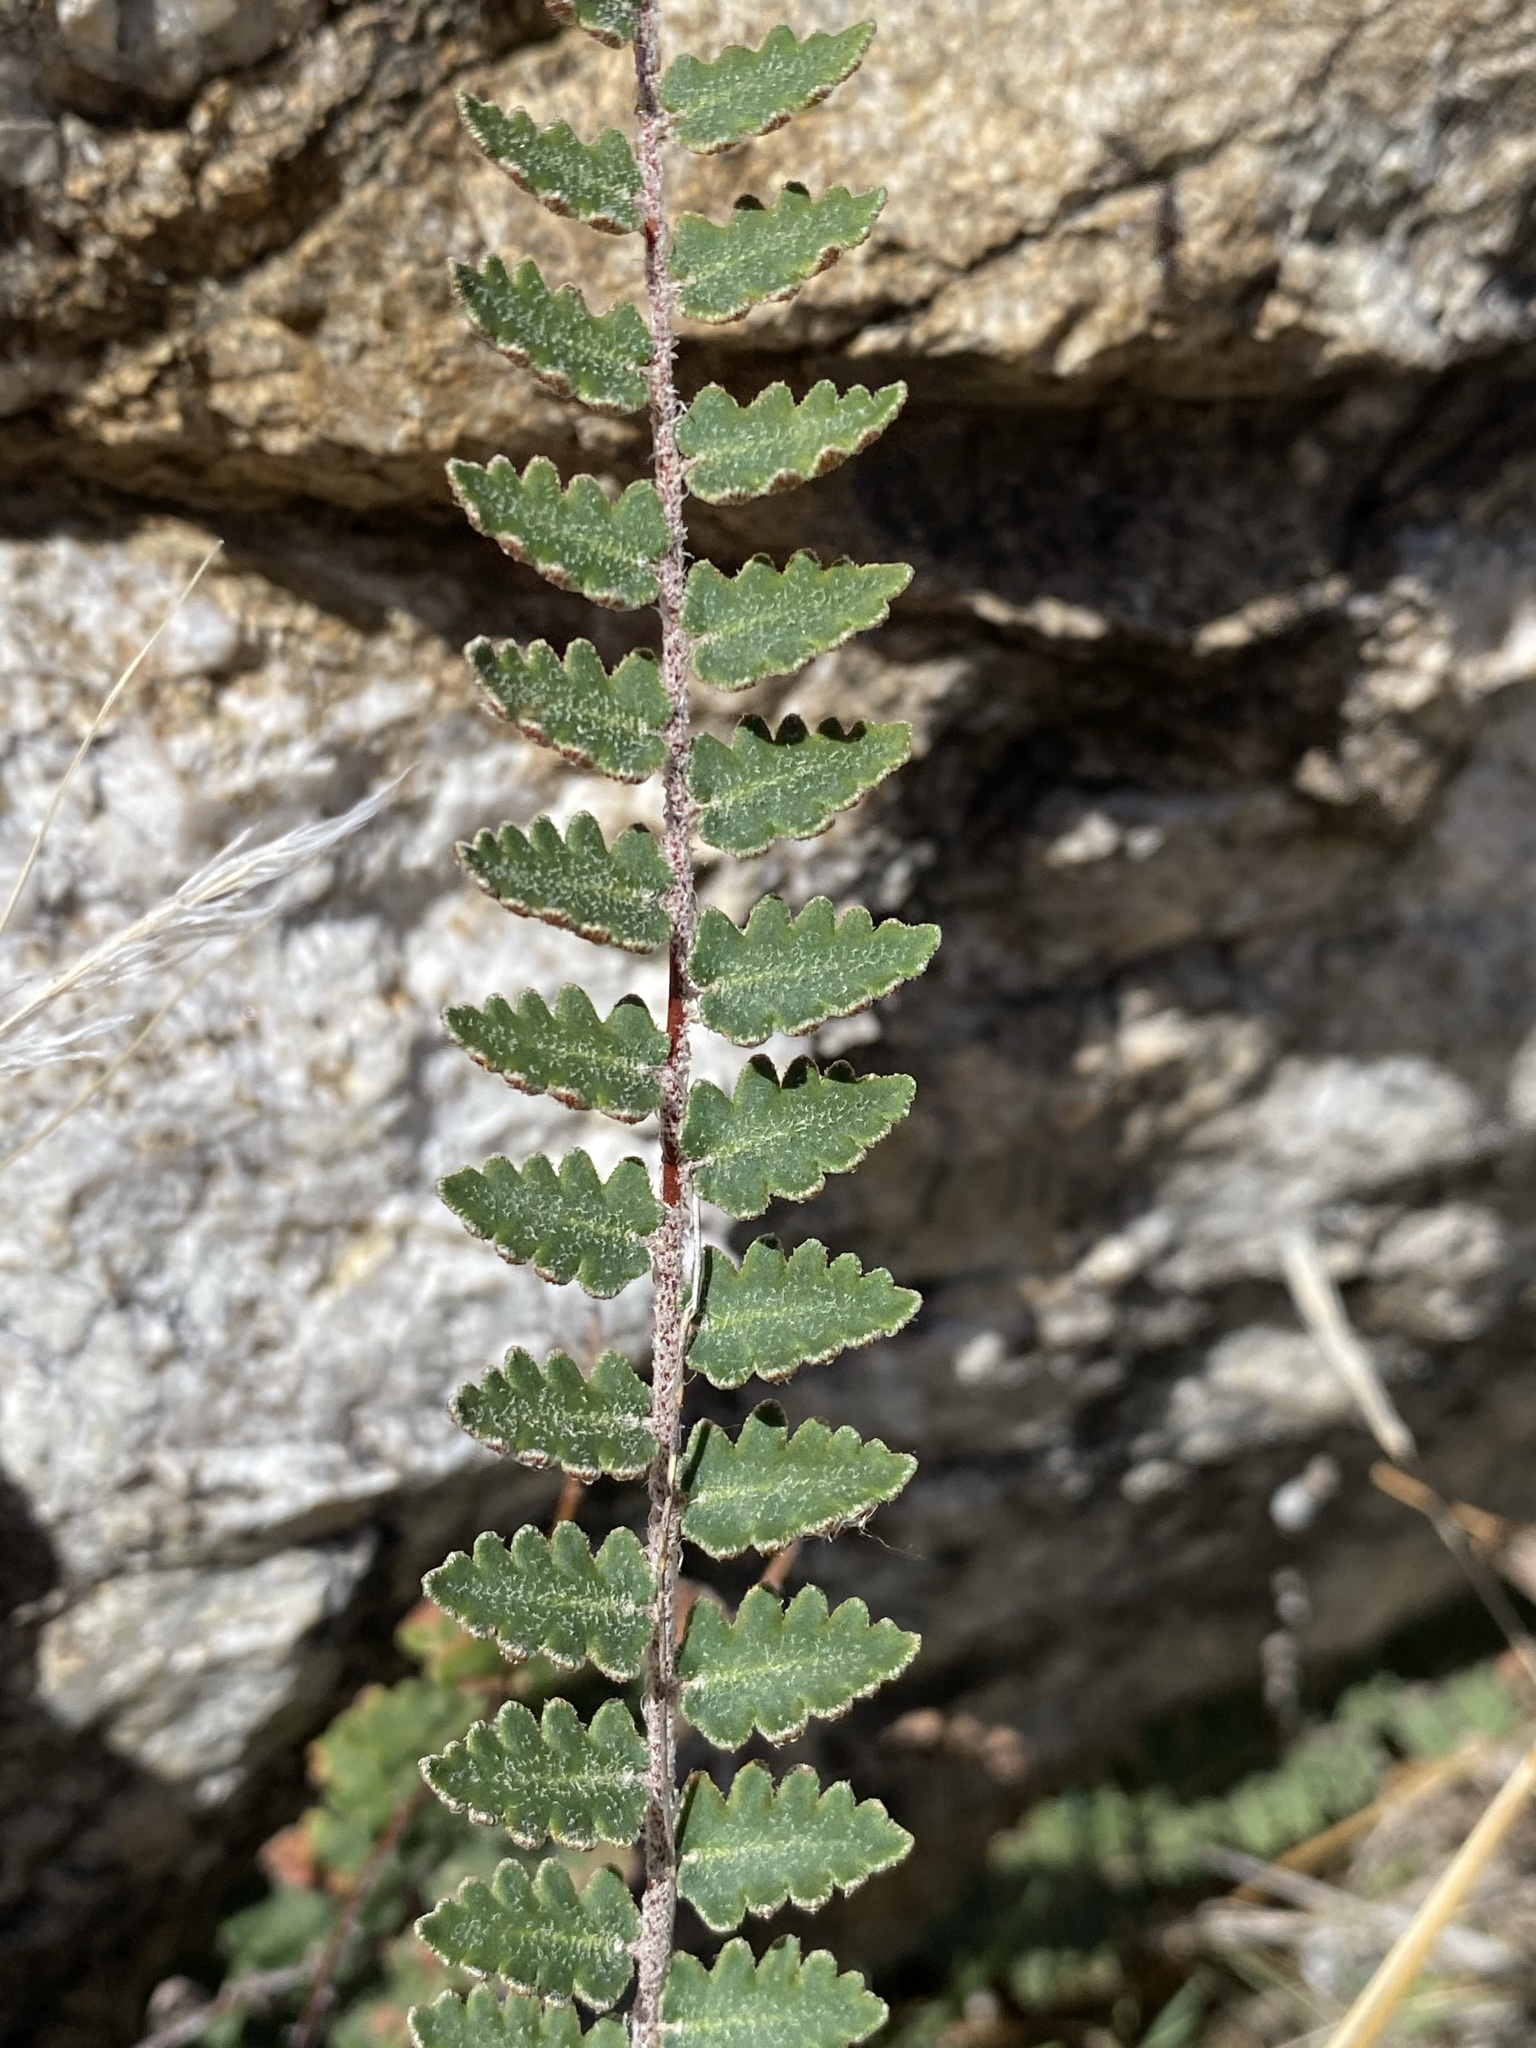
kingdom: Plantae
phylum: Tracheophyta
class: Polypodiopsida
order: Polypodiales
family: Pteridaceae
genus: Astrolepis
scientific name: Astrolepis sinuata
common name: Wavy scaly cloakfern
